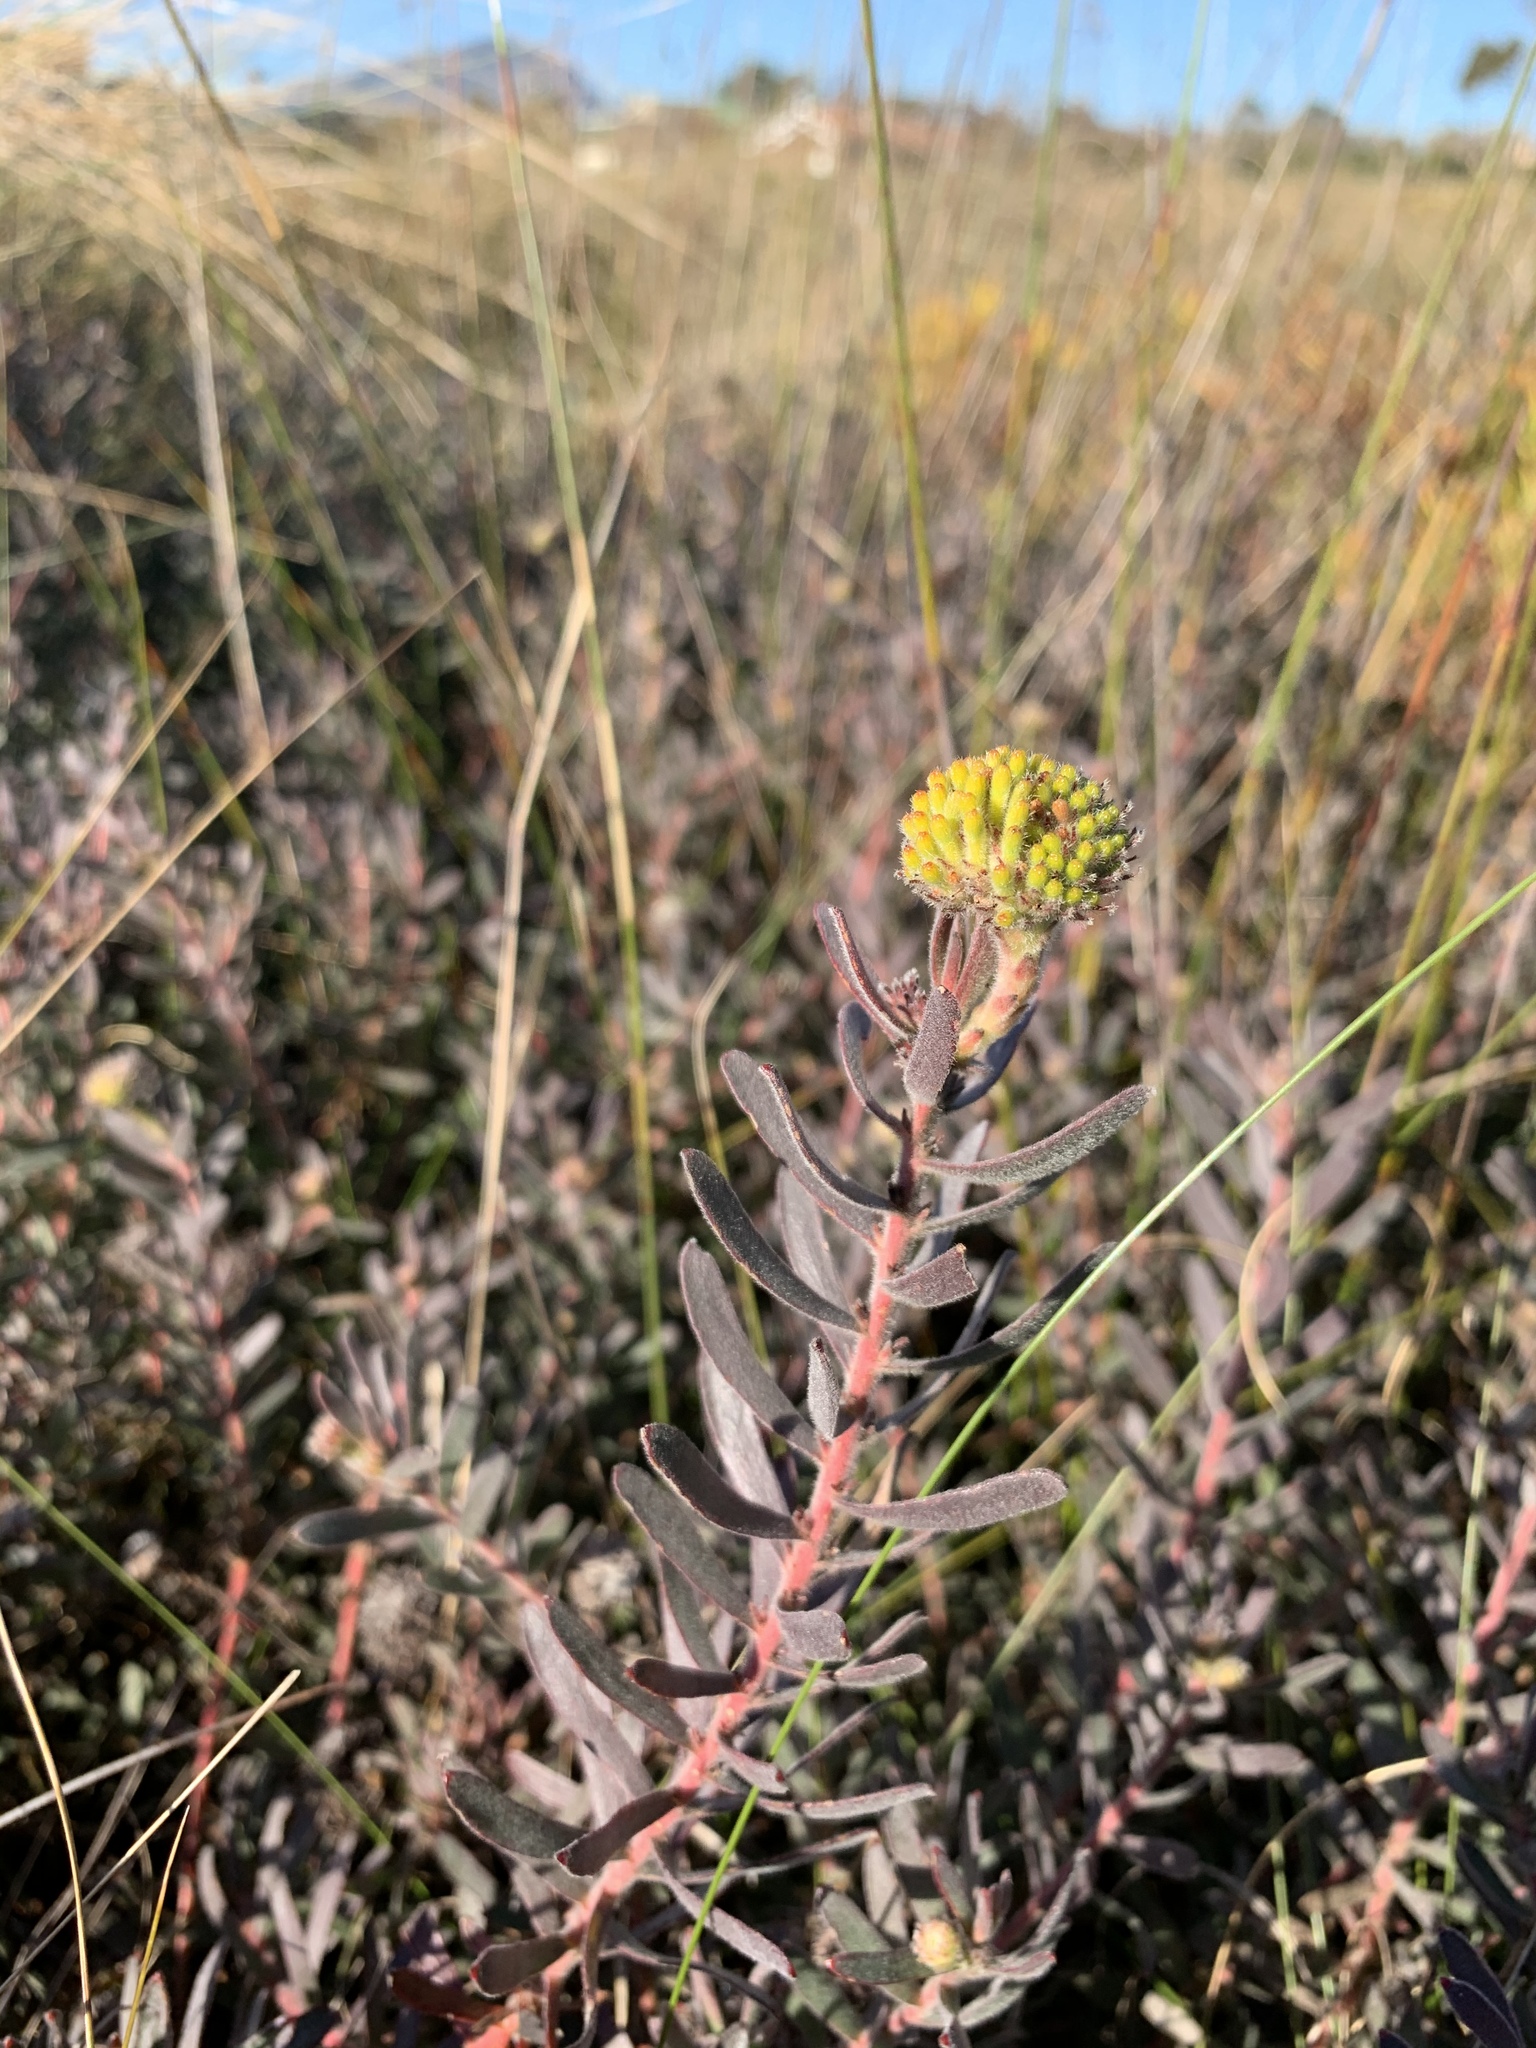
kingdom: Plantae
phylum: Tracheophyta
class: Magnoliopsida
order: Proteales
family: Proteaceae
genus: Leucospermum
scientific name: Leucospermum prostratum
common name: Yellow-trailing pincushion
